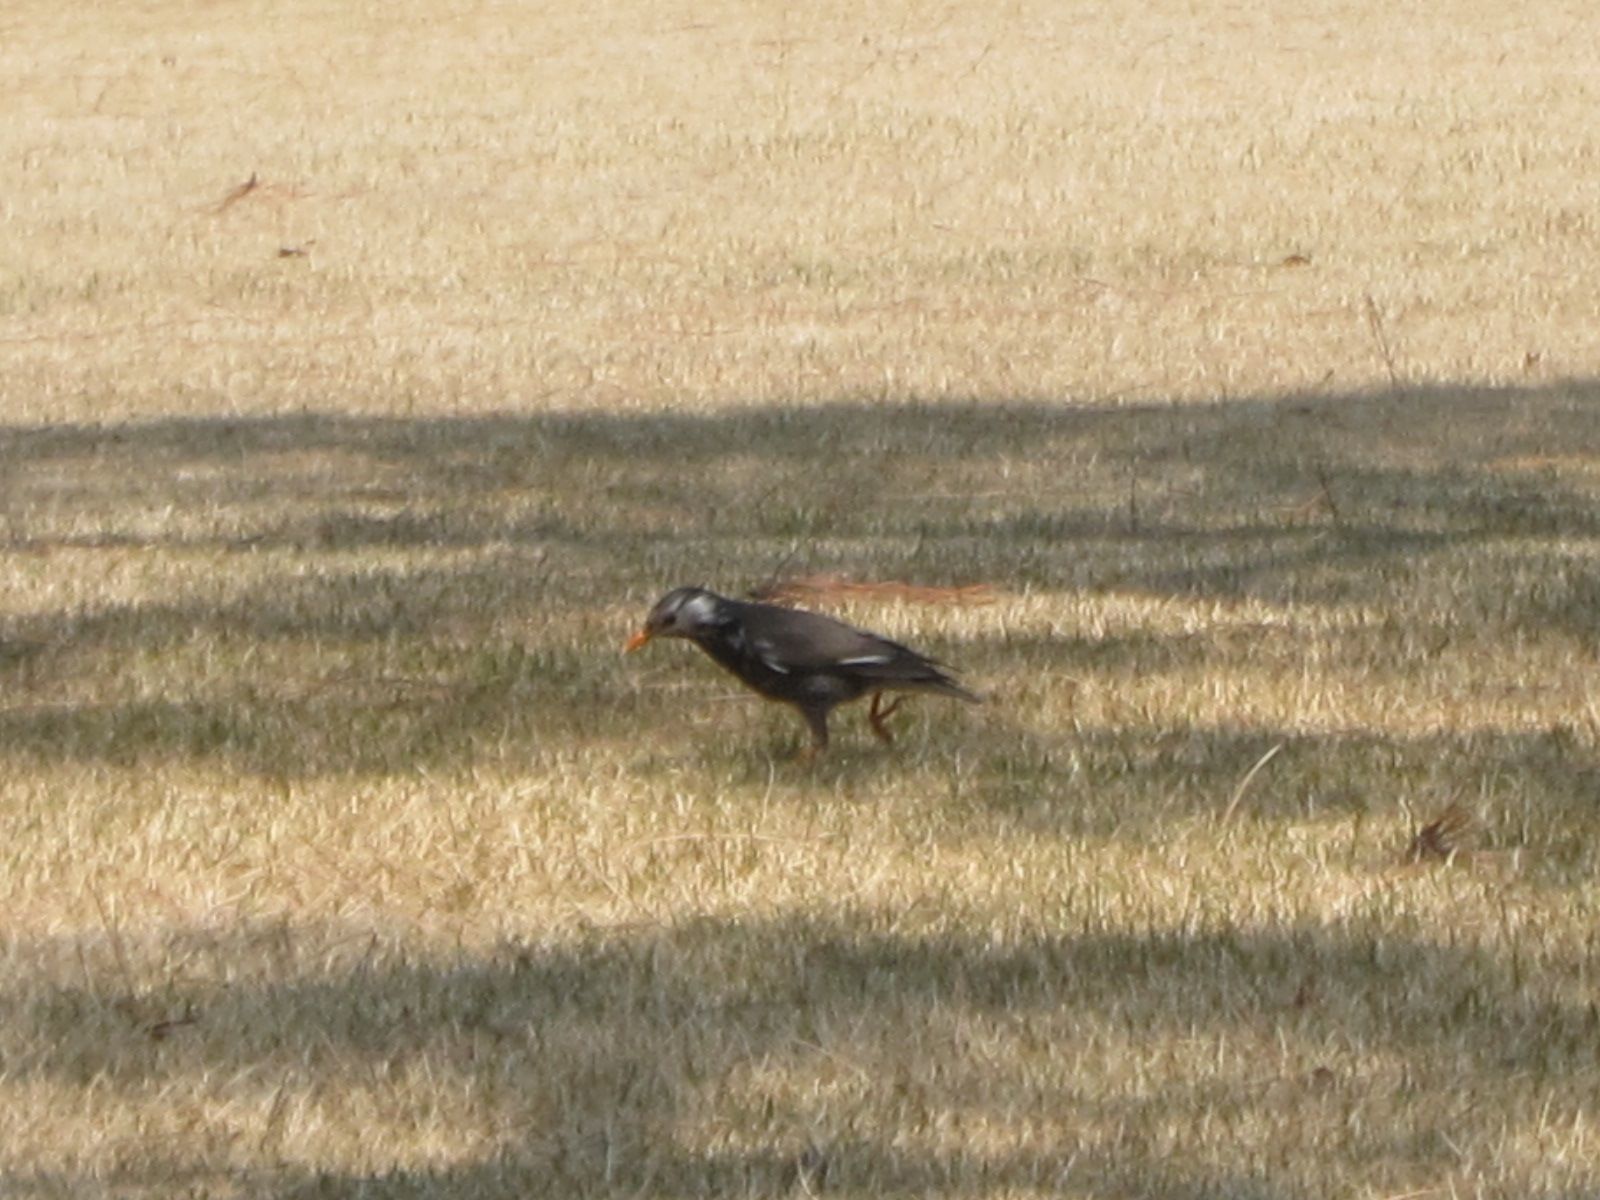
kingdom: Animalia
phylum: Chordata
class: Aves
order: Passeriformes
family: Sturnidae
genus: Spodiopsar
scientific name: Spodiopsar cineraceus
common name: White-cheeked starling
